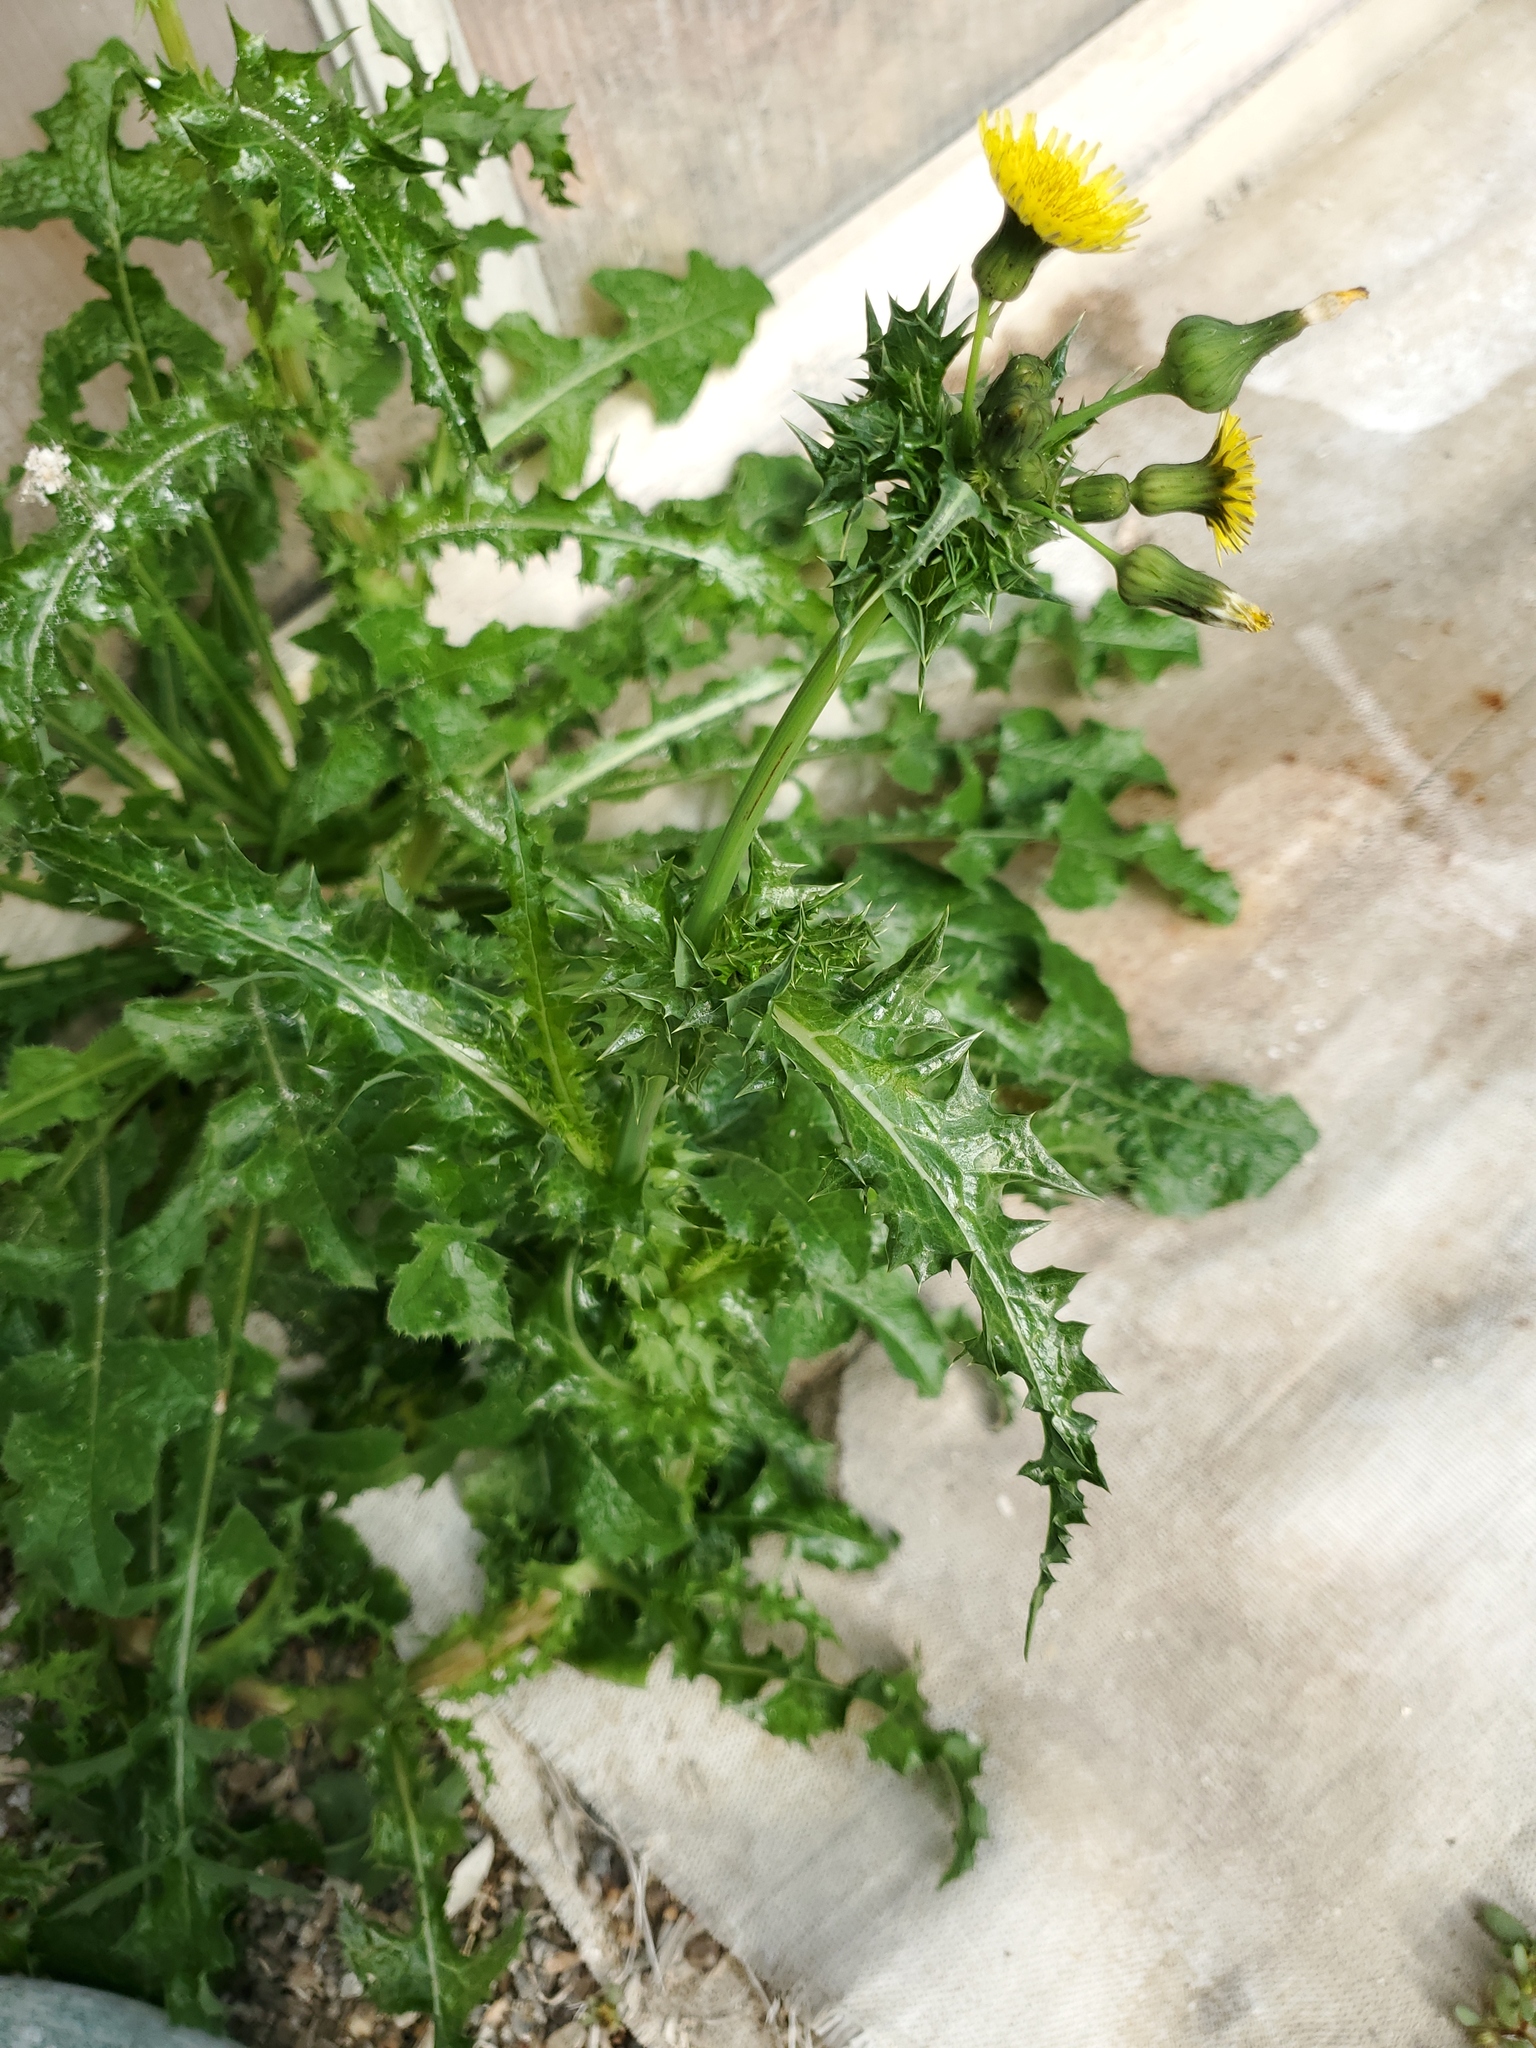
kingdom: Plantae
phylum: Tracheophyta
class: Magnoliopsida
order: Asterales
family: Asteraceae
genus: Sonchus
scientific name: Sonchus arvensis
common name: Perennial sow-thistle
